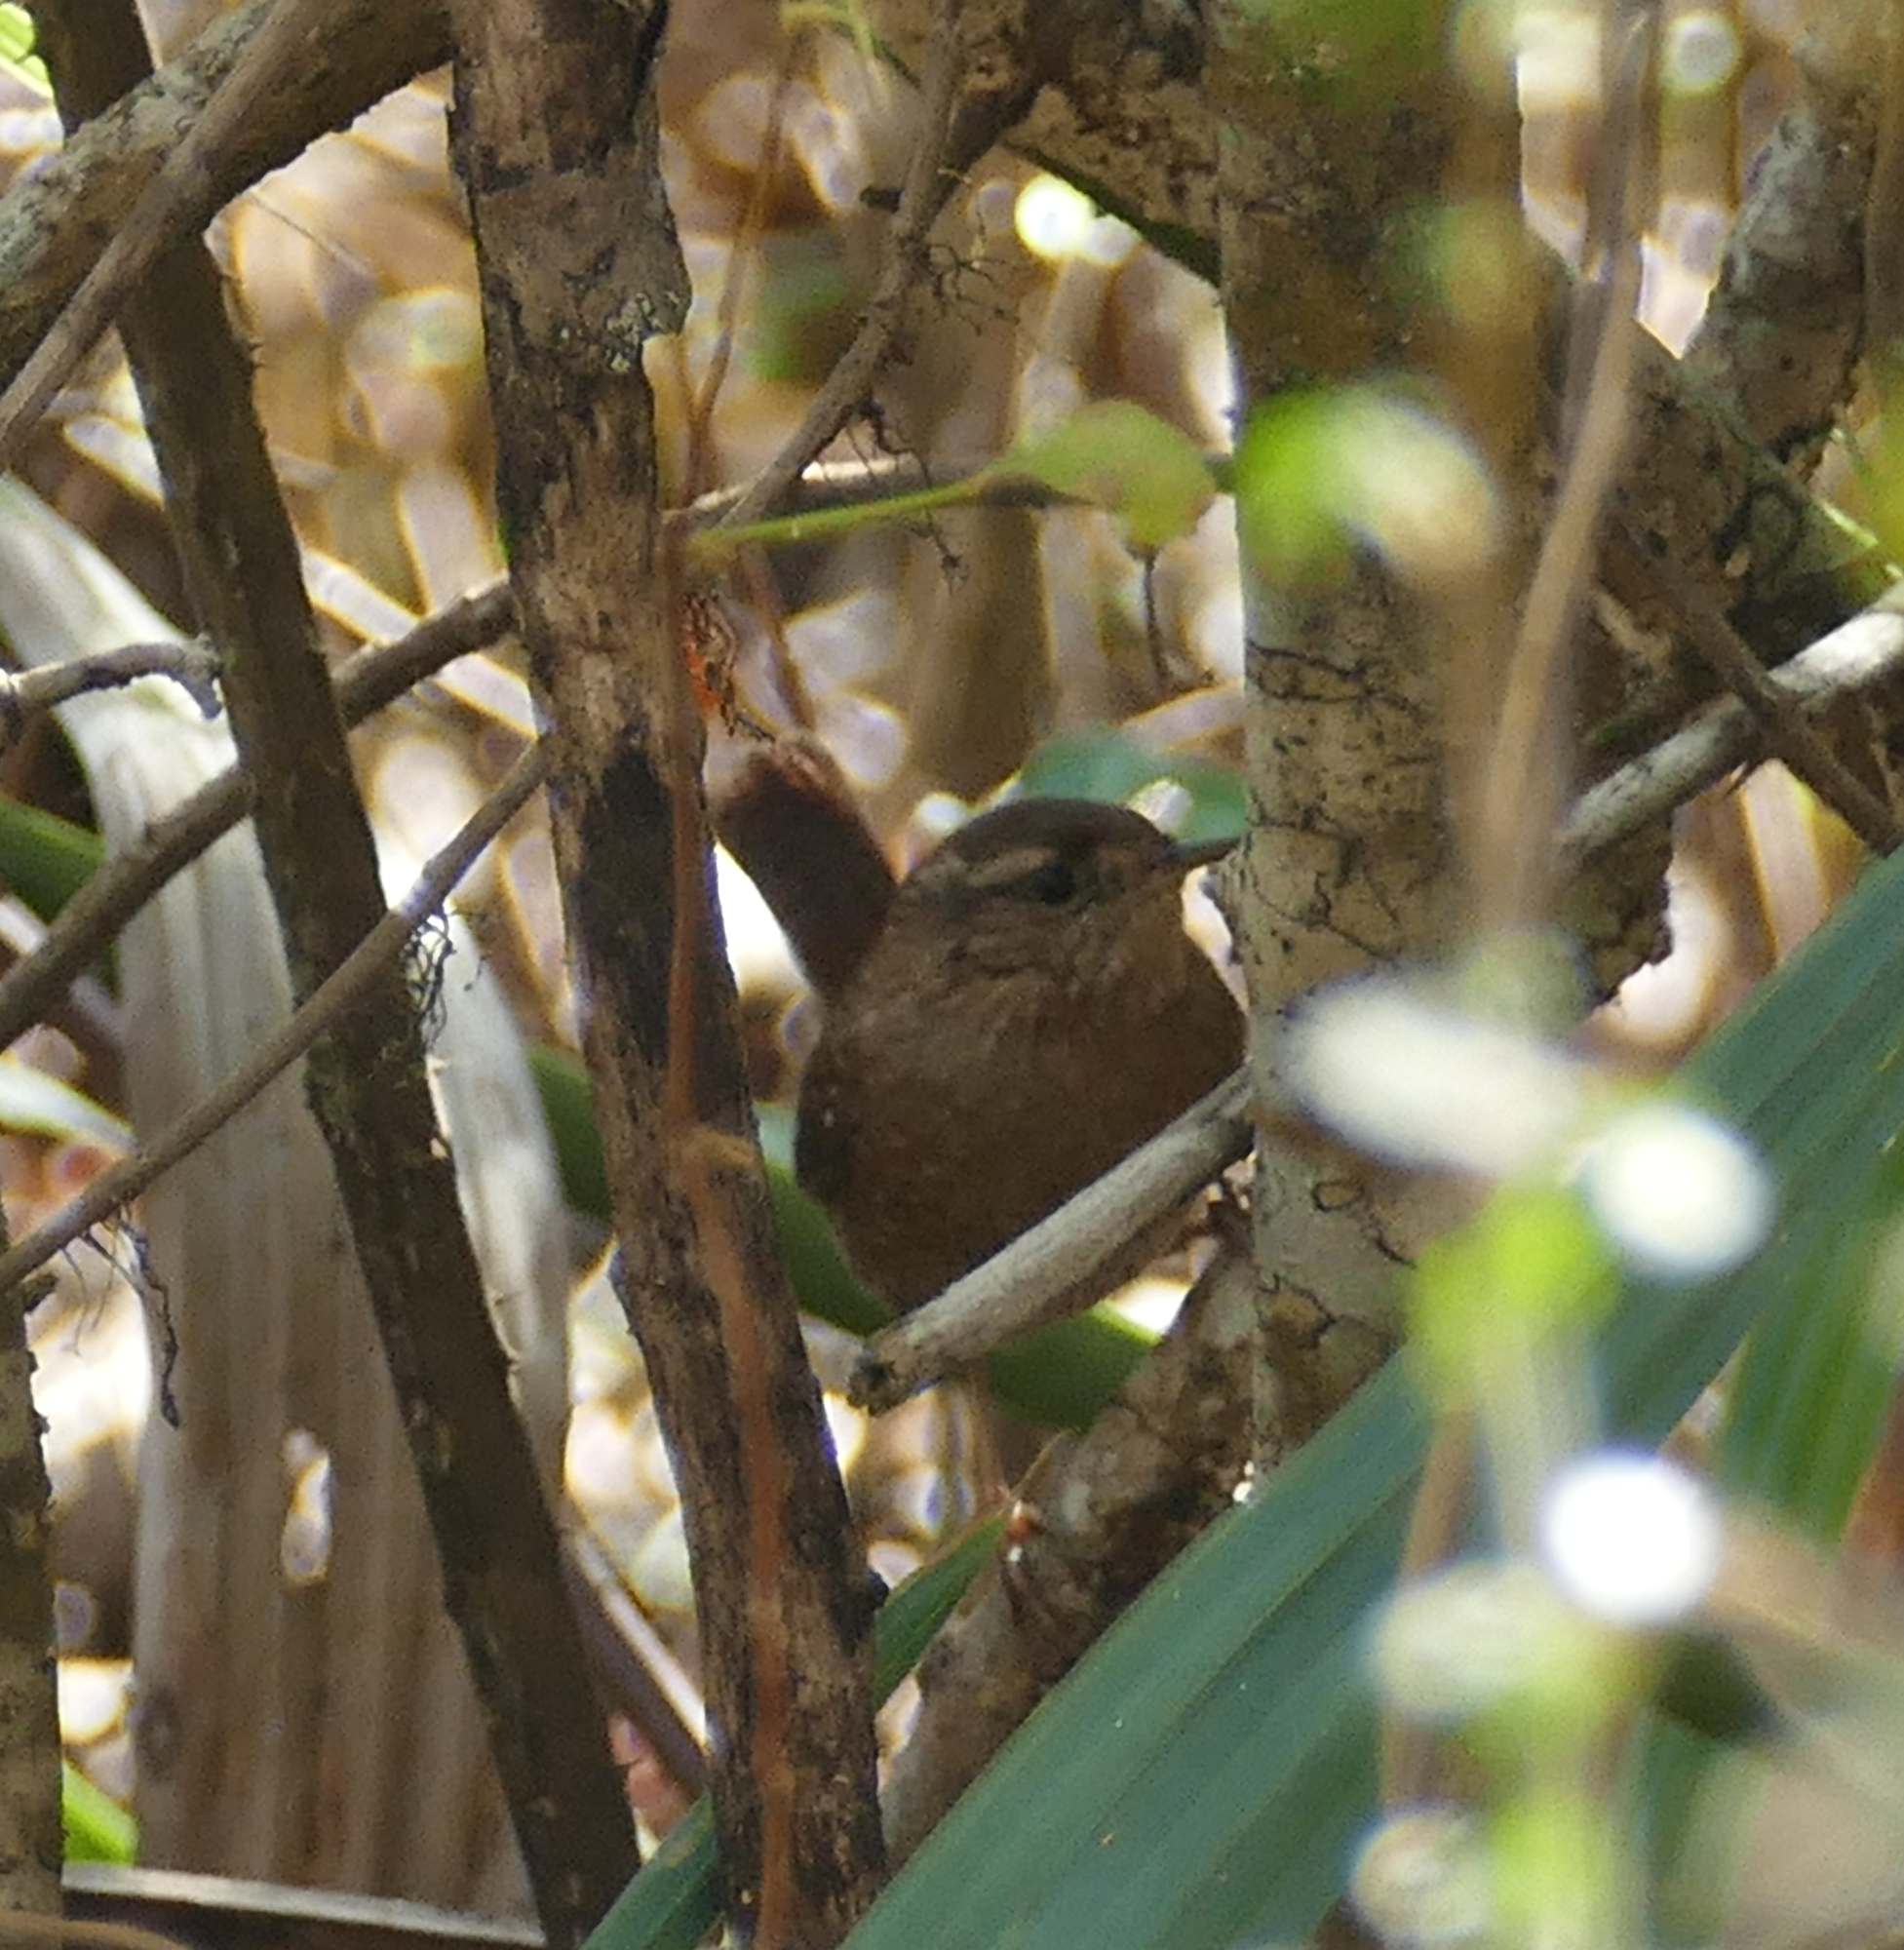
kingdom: Animalia
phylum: Chordata
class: Aves
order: Passeriformes
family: Troglodytidae
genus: Troglodytes
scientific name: Troglodytes hiemalis
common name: Winter wren
